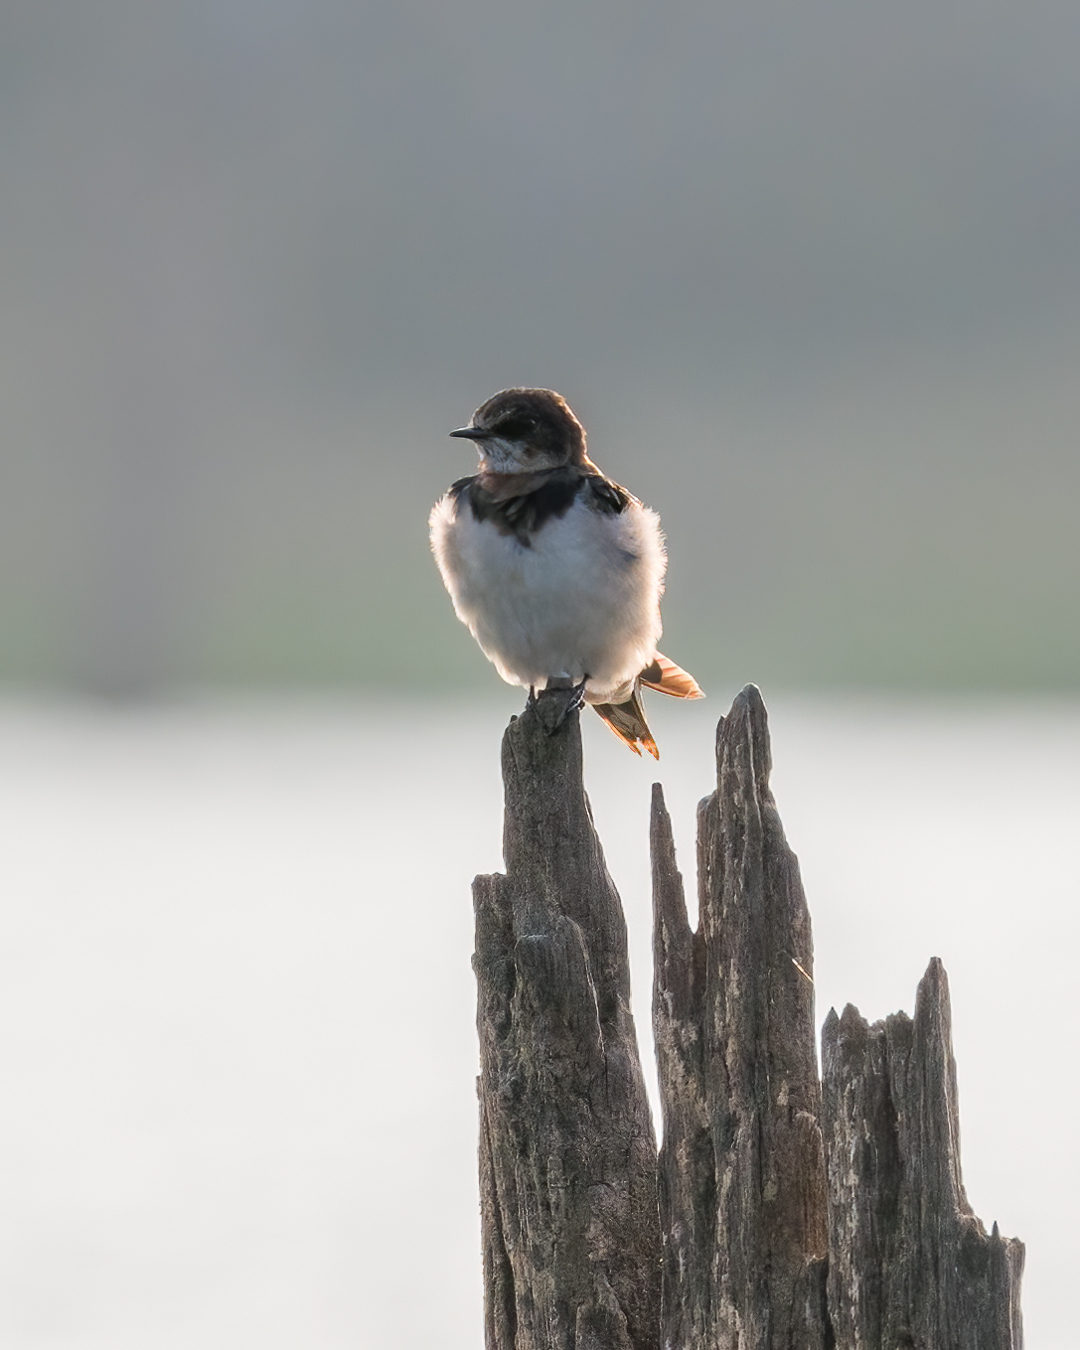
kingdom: Animalia
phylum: Chordata
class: Aves
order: Passeriformes
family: Hirundinidae
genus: Hirundo
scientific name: Hirundo rustica
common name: Barn swallow
